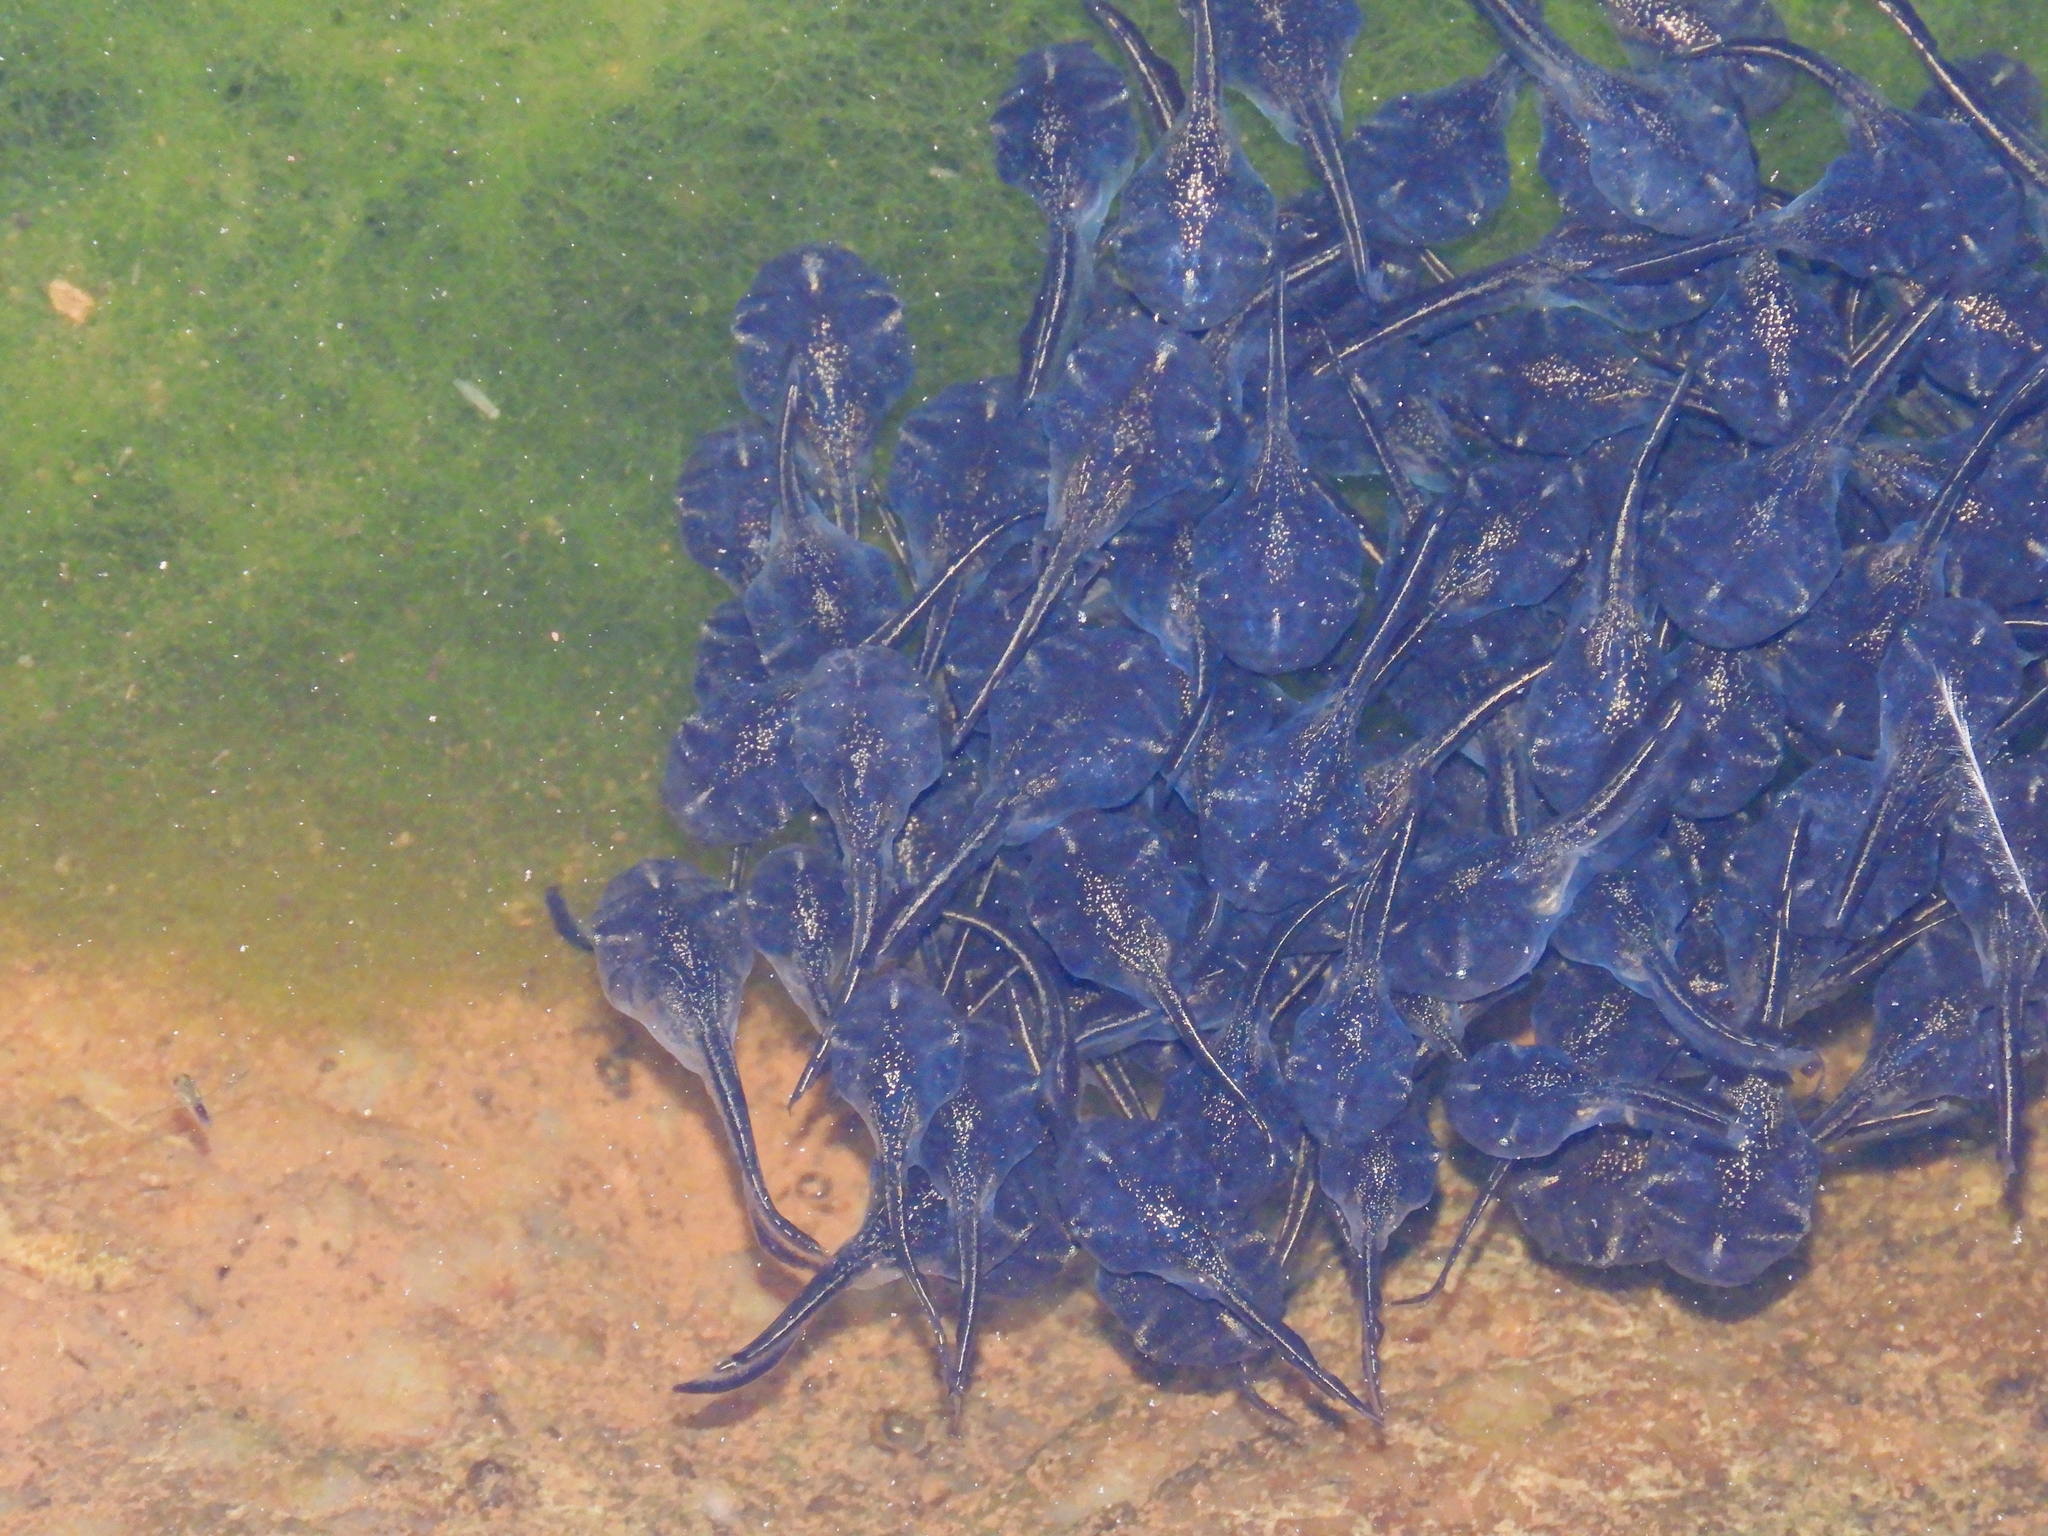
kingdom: Animalia
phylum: Chordata
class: Amphibia
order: Anura
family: Microhylidae
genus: Phrynomantis
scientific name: Phrynomantis annectens
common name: Marbled rubber frog
